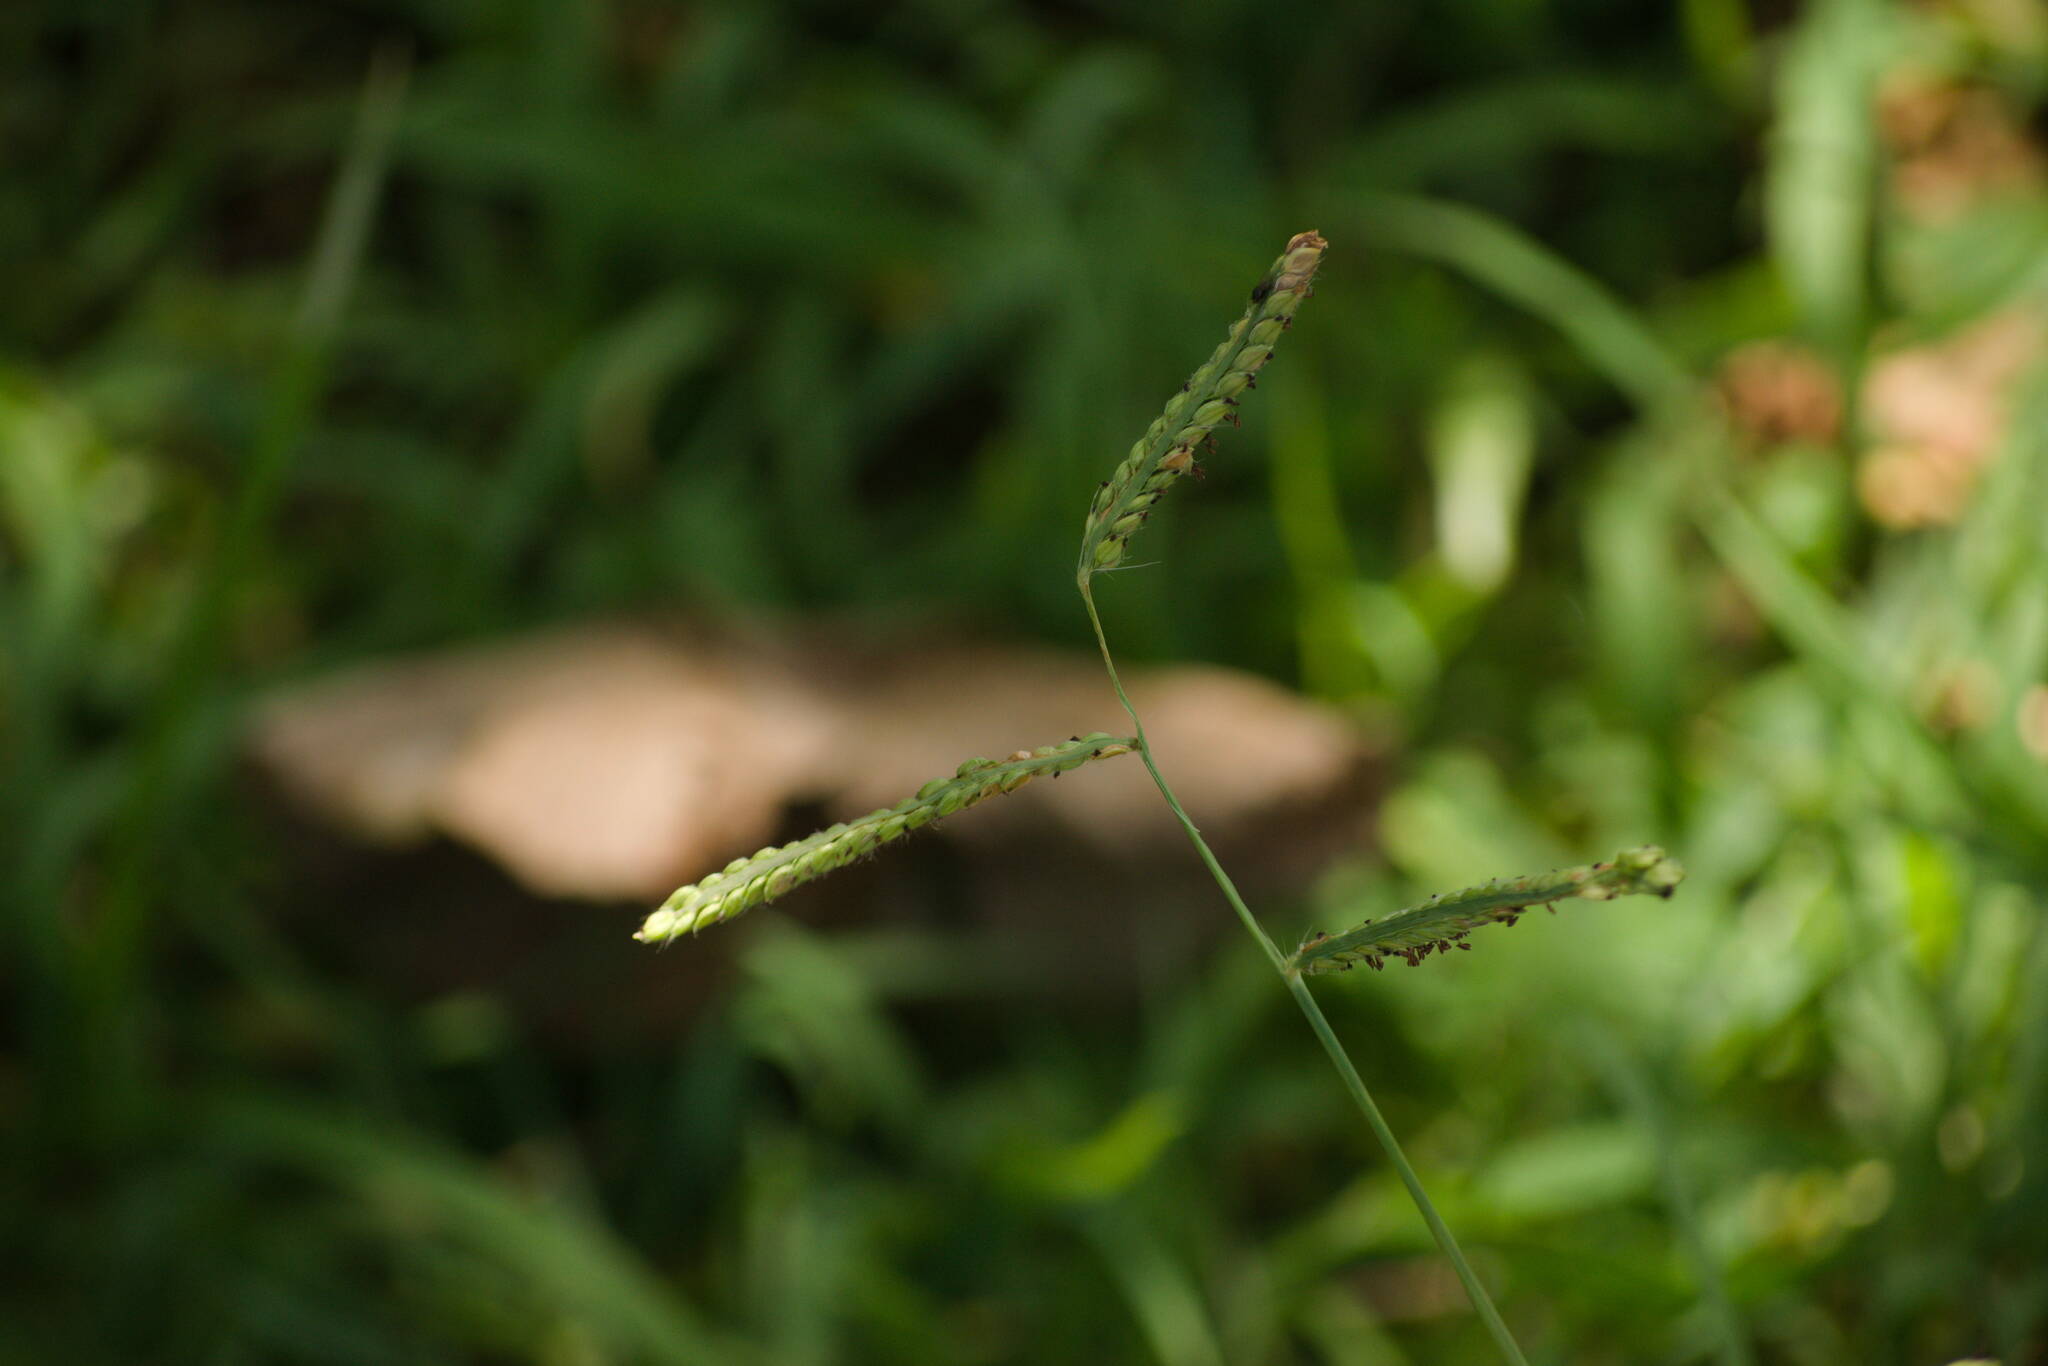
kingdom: Plantae
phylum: Tracheophyta
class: Liliopsida
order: Poales
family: Poaceae
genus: Paspalum
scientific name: Paspalum dilatatum
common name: Dallisgrass
